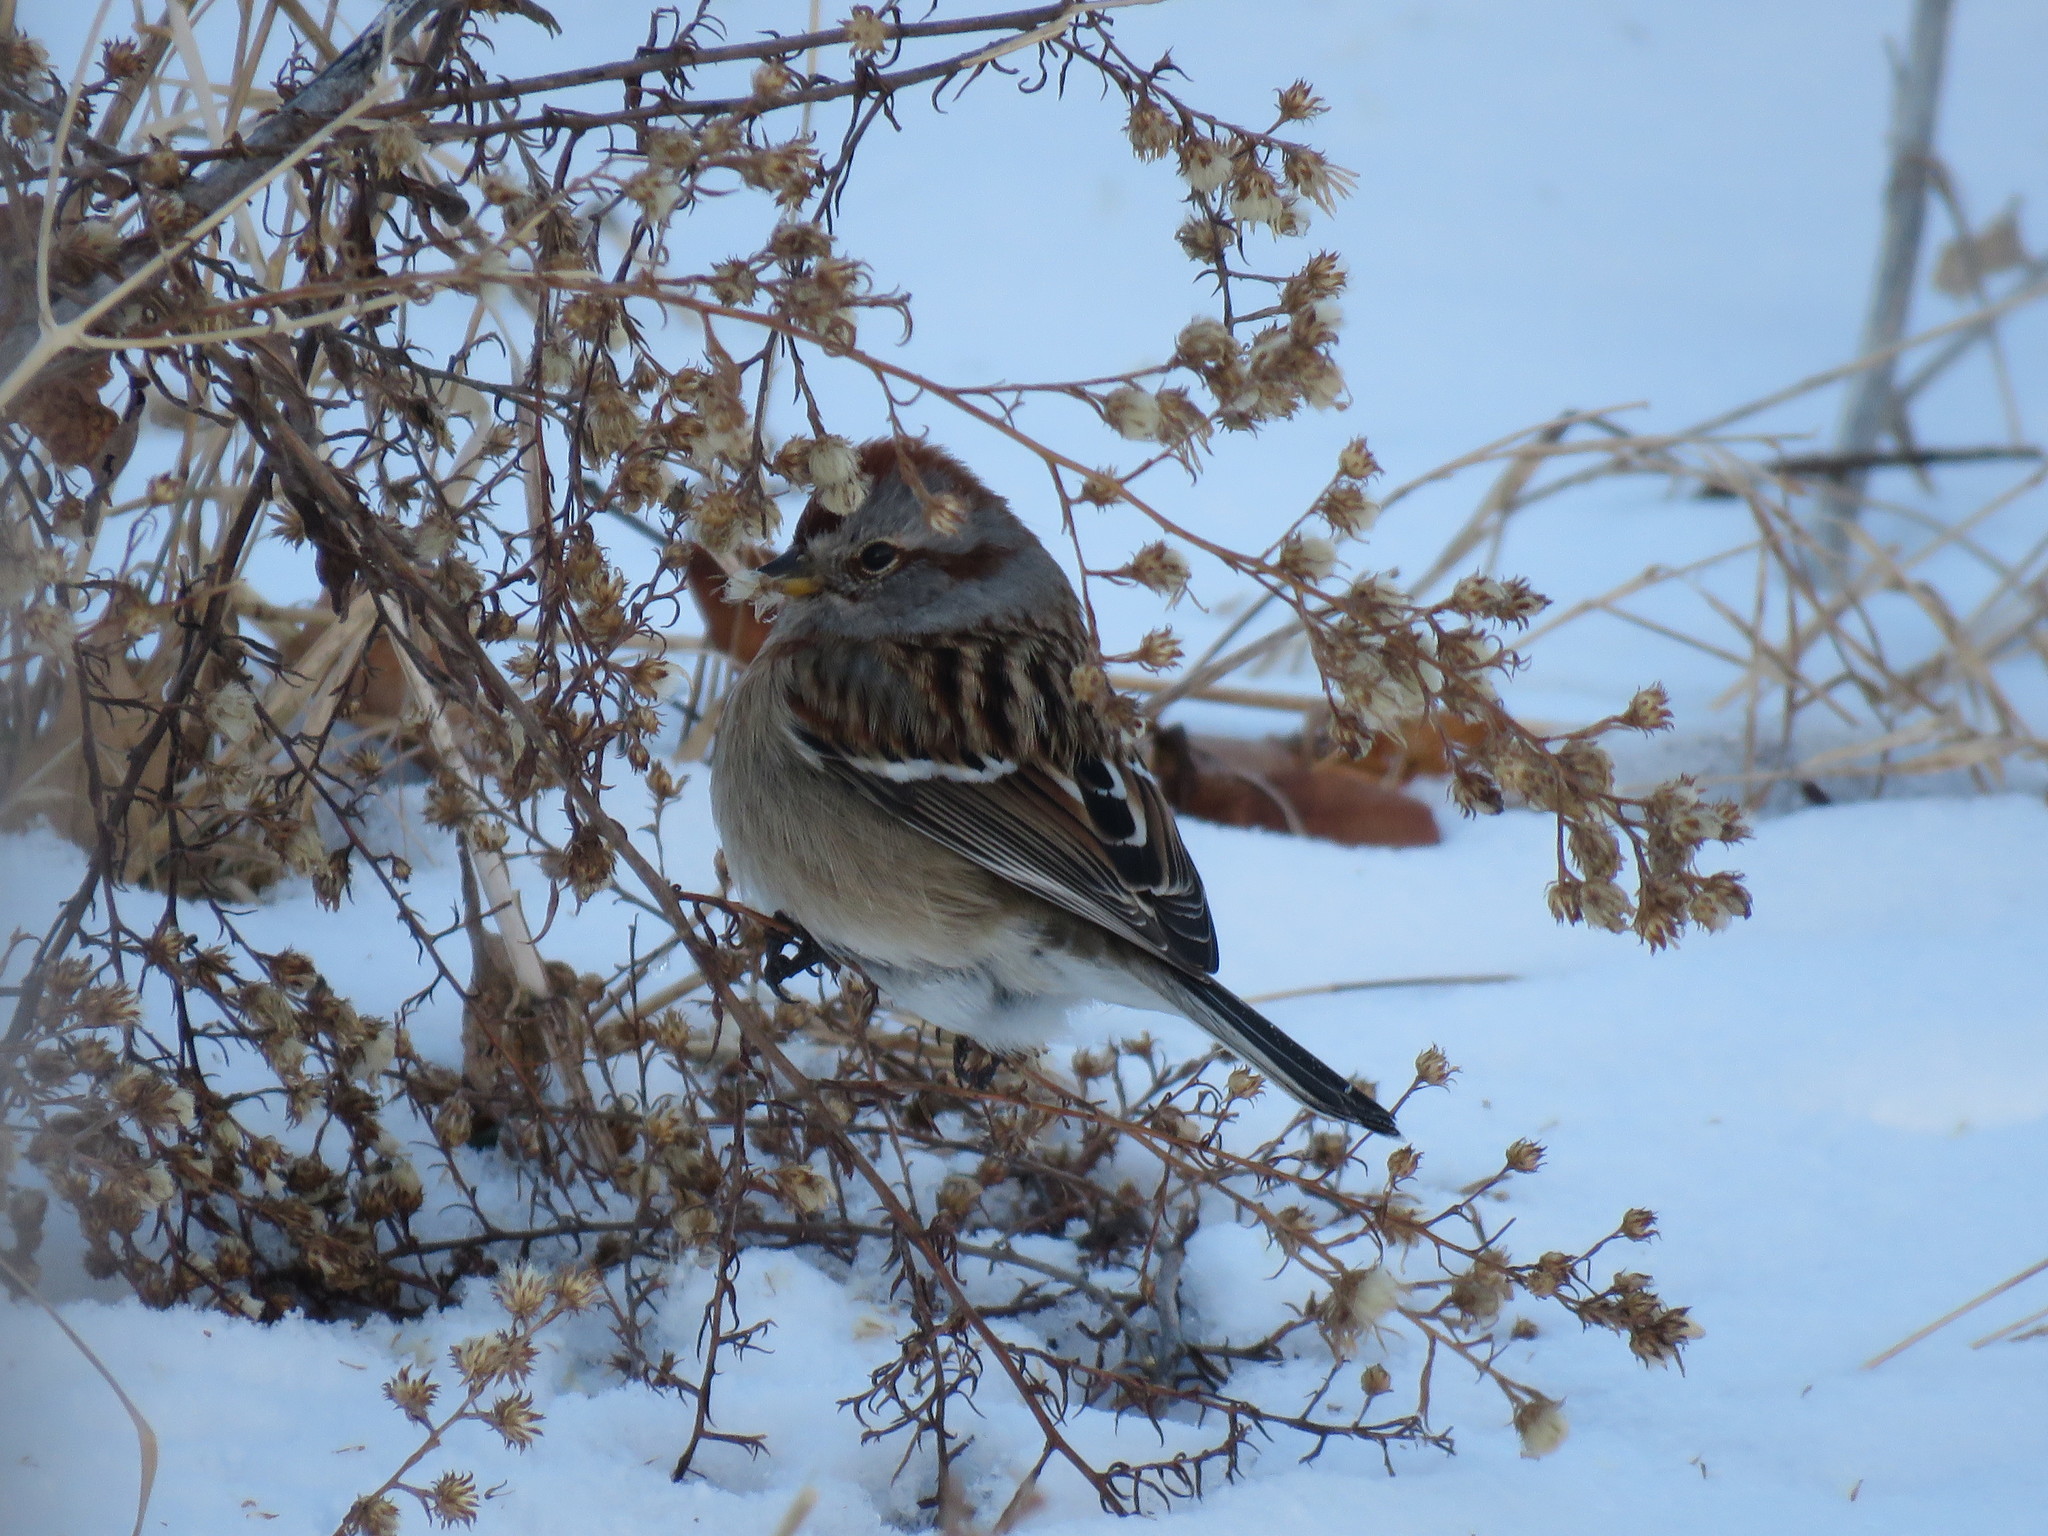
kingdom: Animalia
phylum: Chordata
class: Aves
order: Passeriformes
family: Passerellidae
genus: Spizelloides
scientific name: Spizelloides arborea
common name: American tree sparrow
